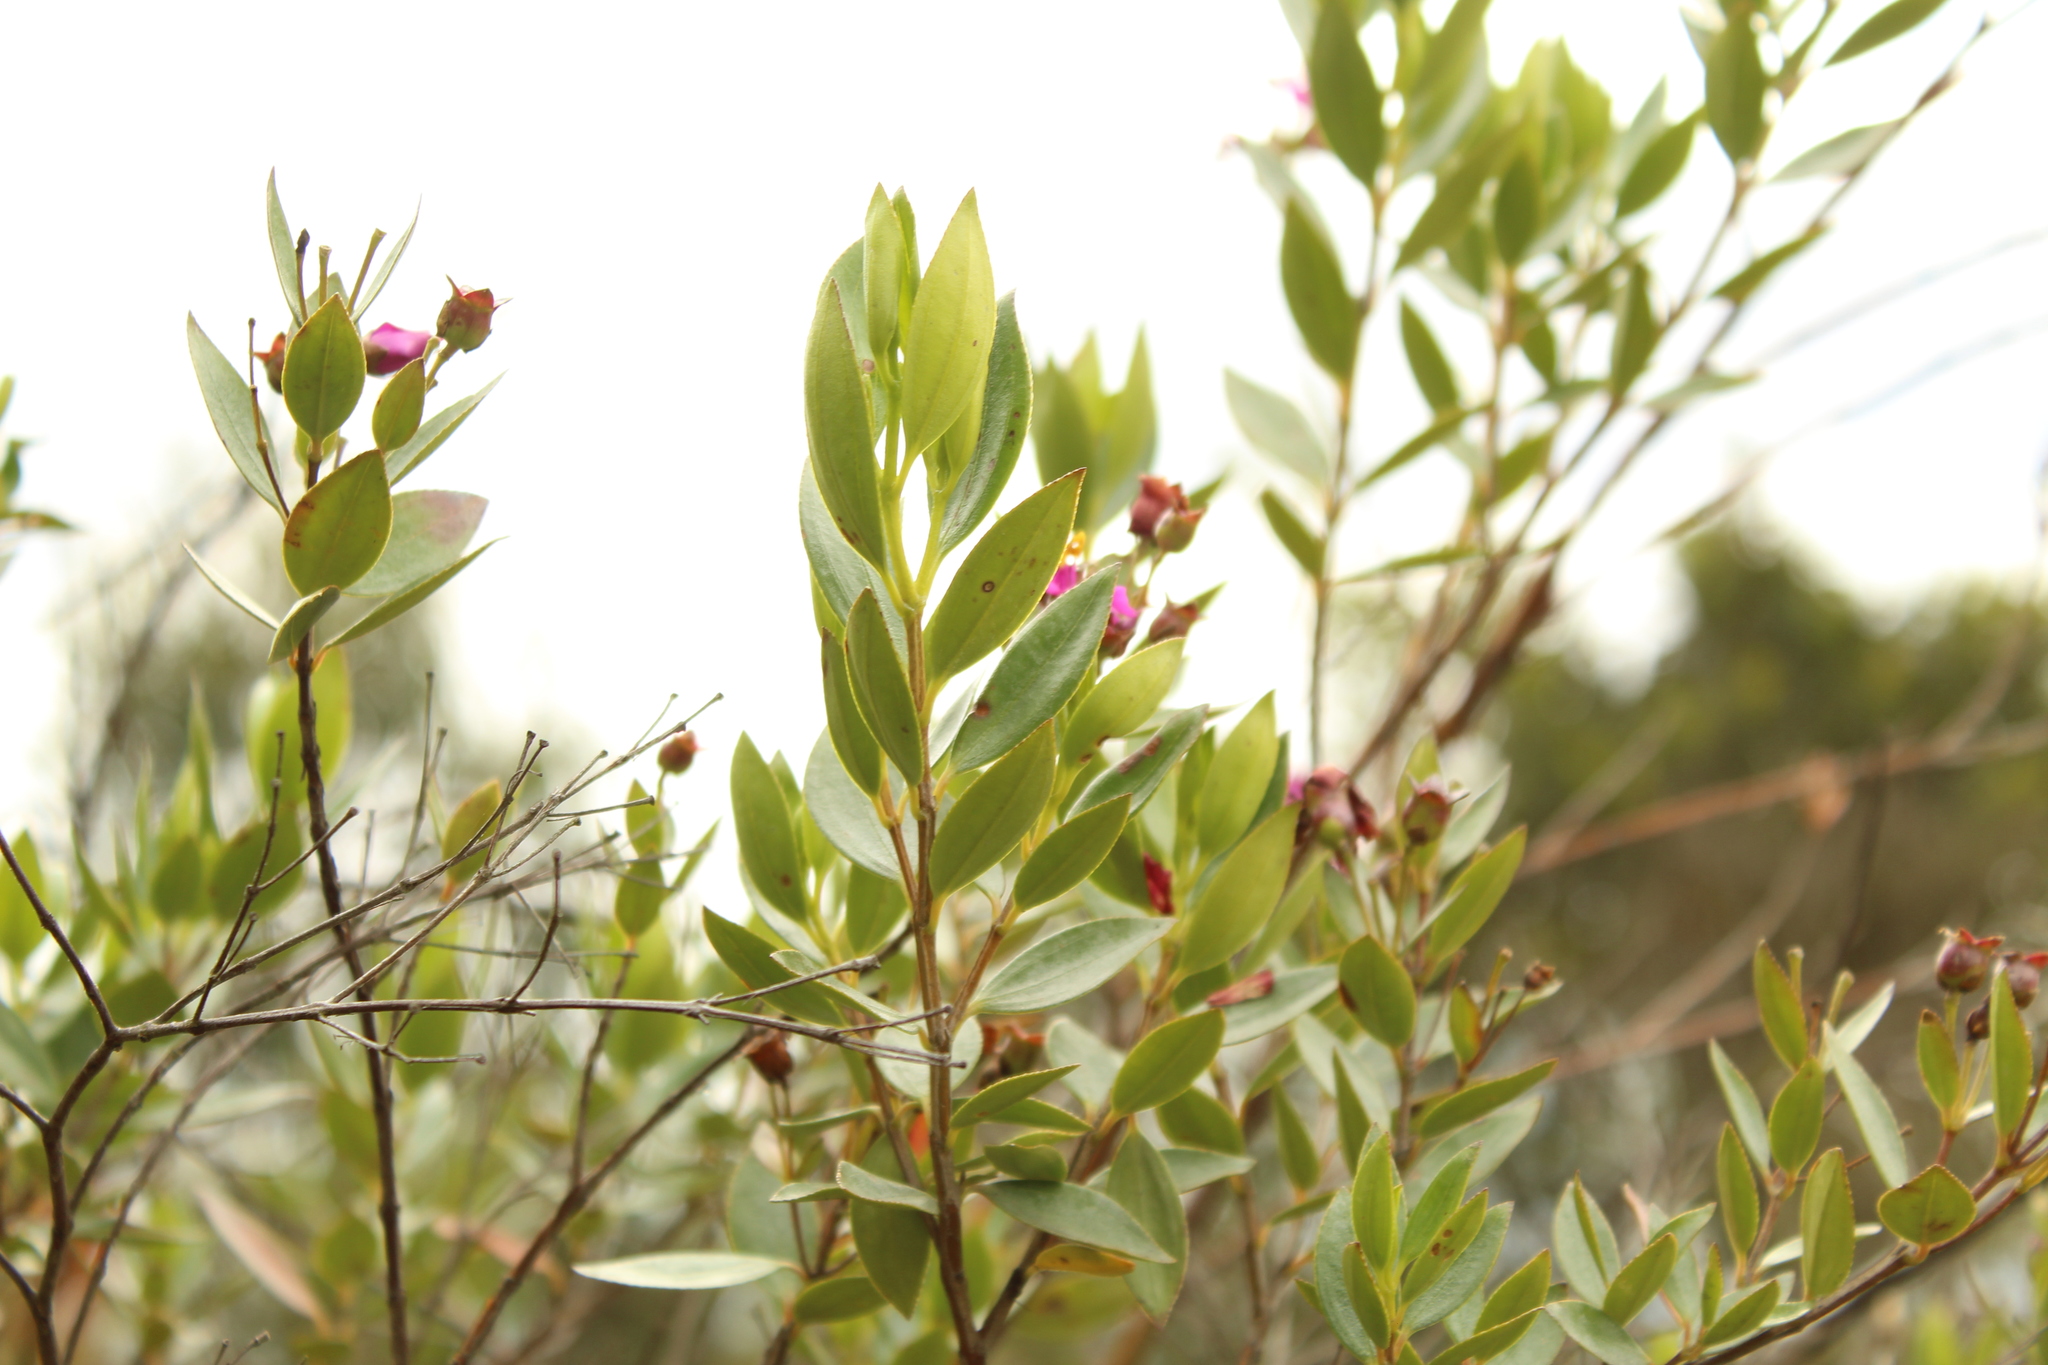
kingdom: Plantae
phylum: Tracheophyta
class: Magnoliopsida
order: Myrtales
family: Melastomataceae
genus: Bucquetia
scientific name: Bucquetia glutinosa
